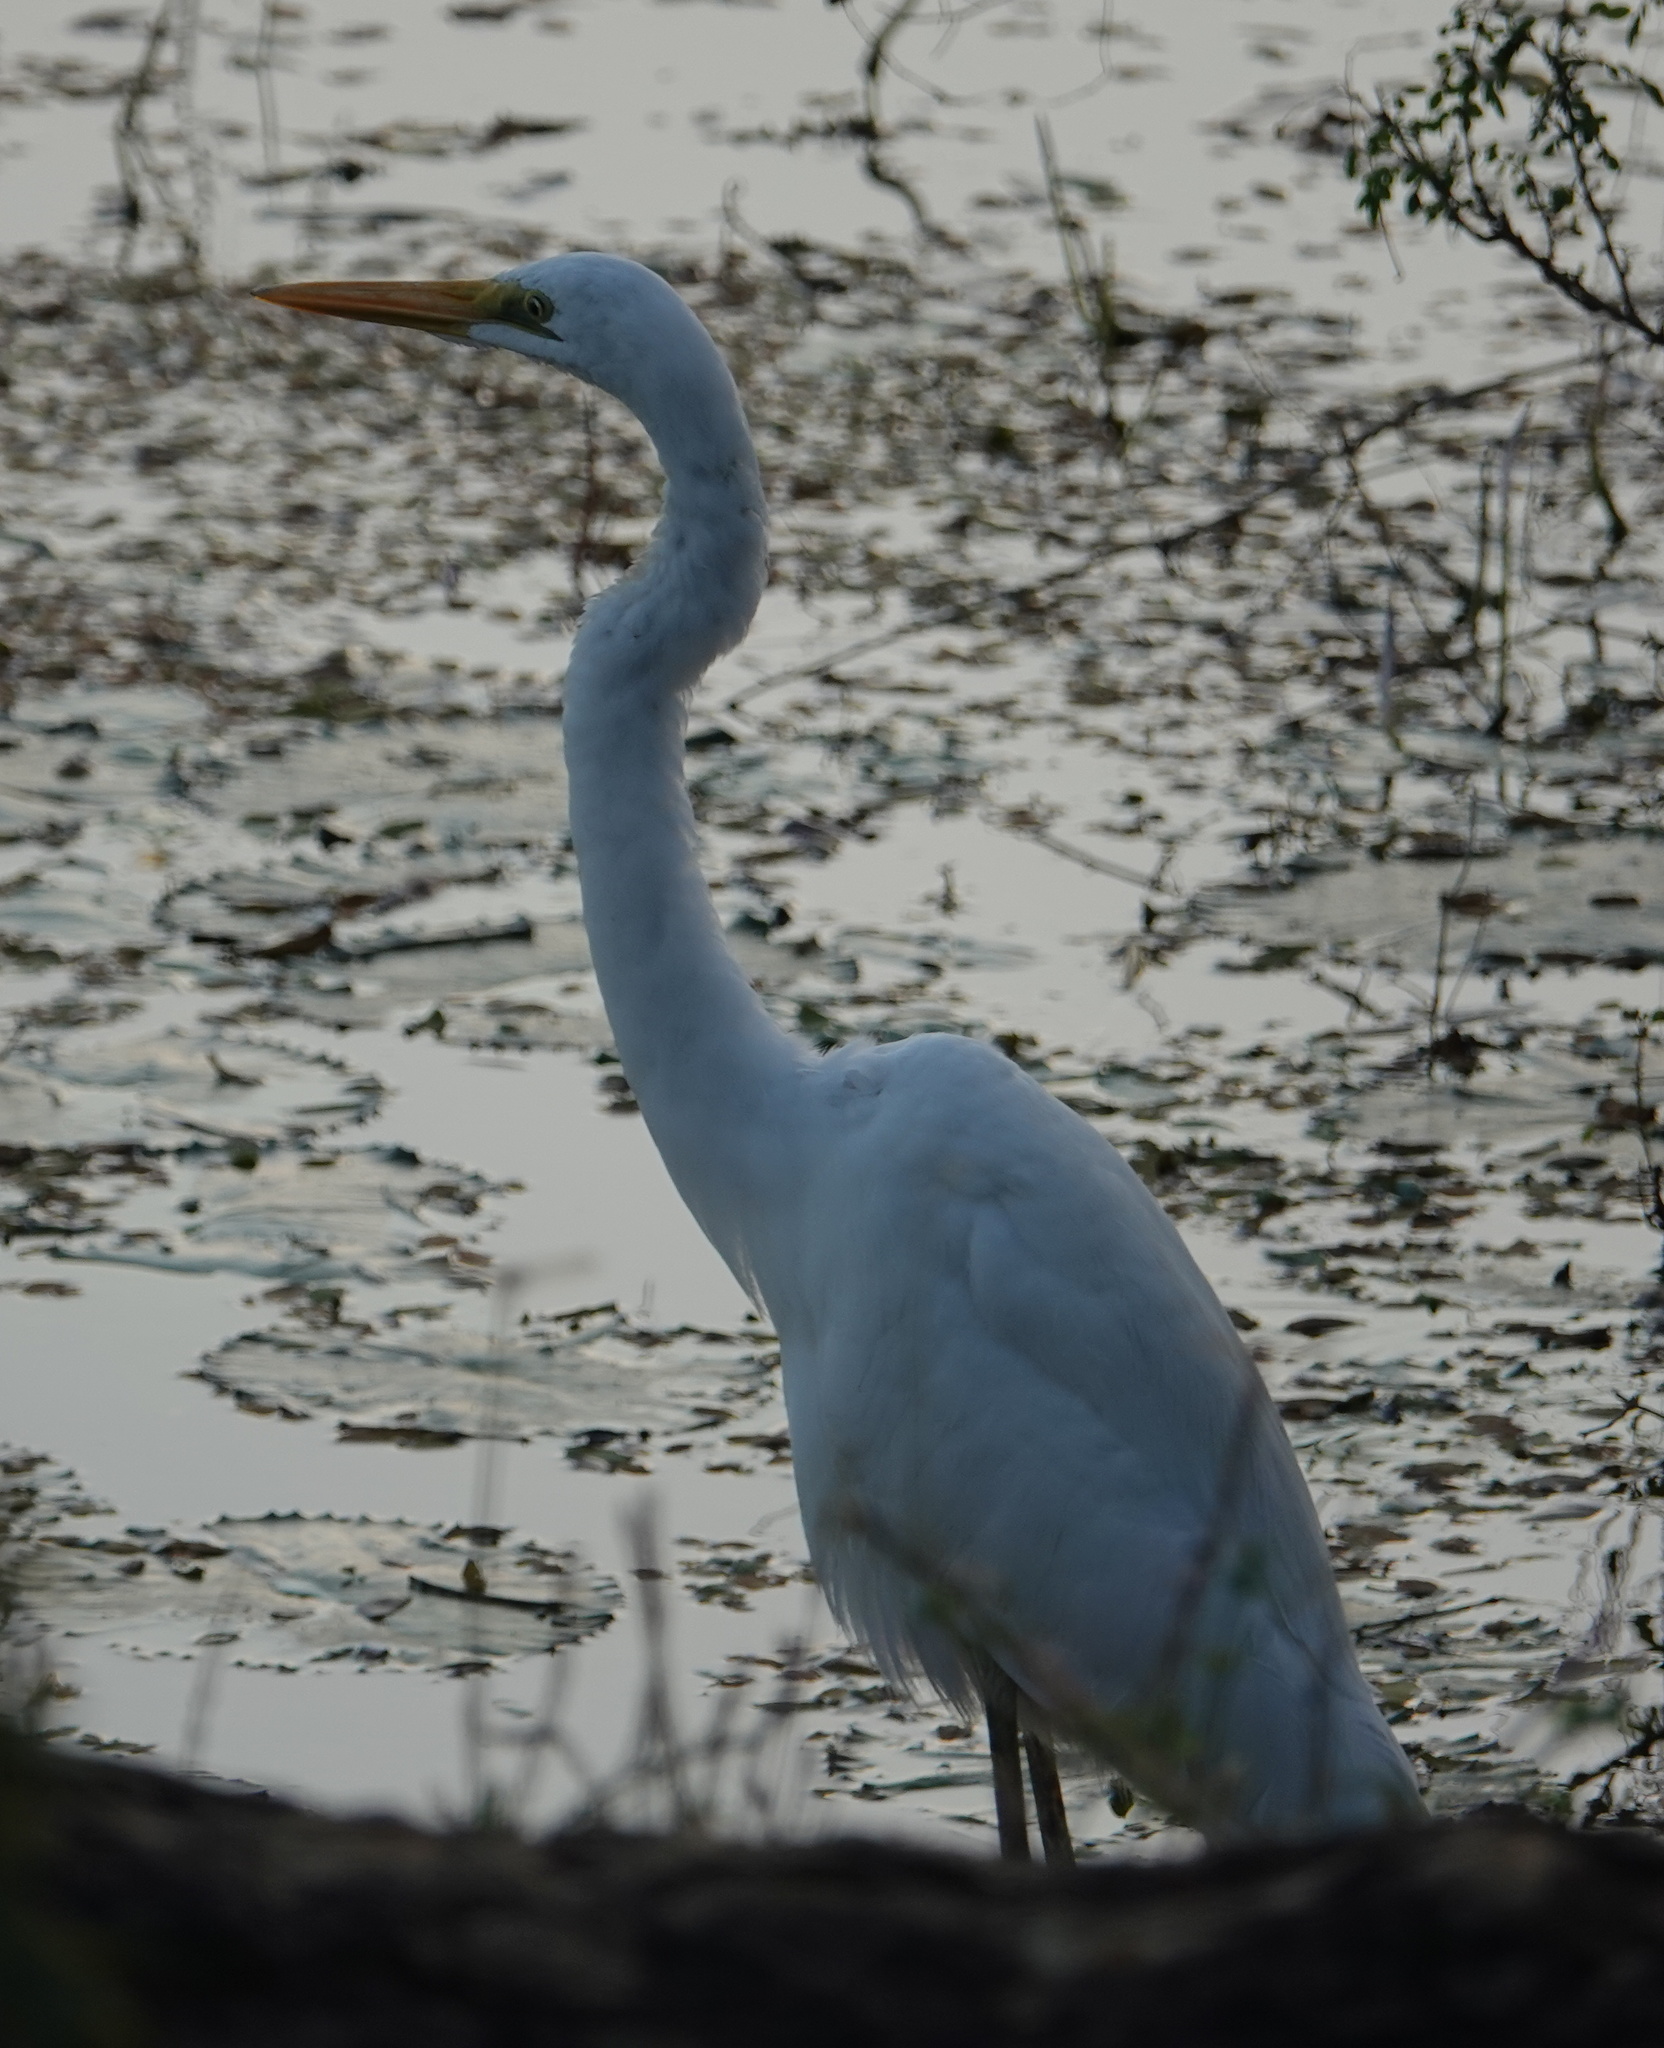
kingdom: Animalia
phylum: Chordata
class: Aves
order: Pelecaniformes
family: Ardeidae
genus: Ardea
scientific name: Ardea alba
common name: Great egret
